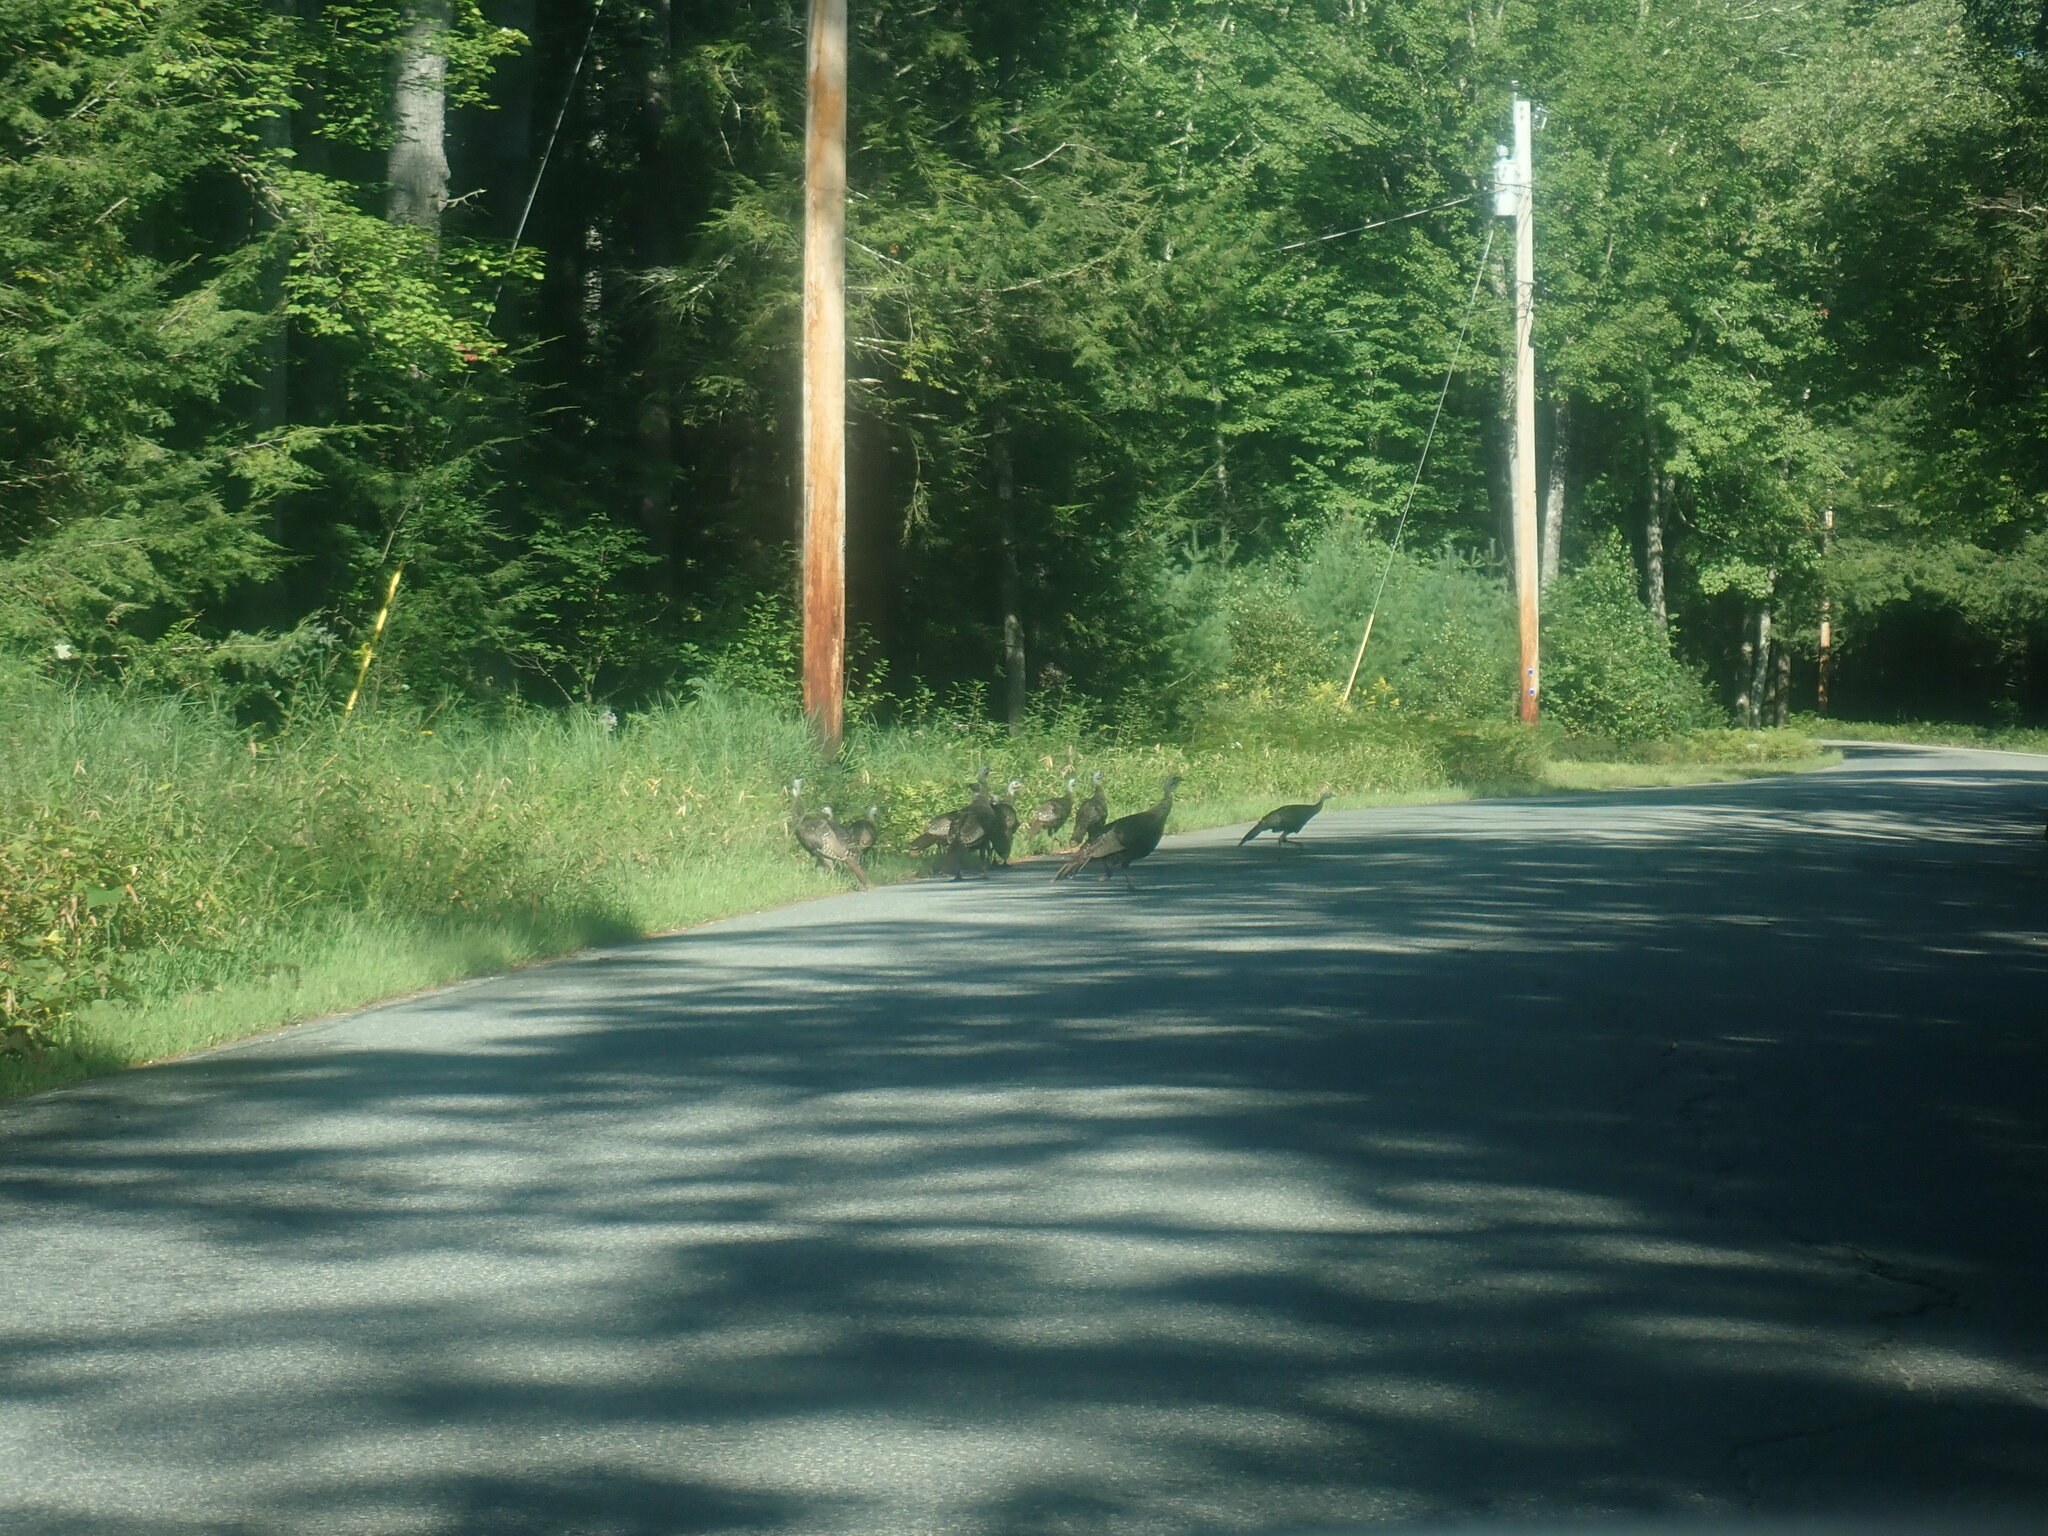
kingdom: Animalia
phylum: Chordata
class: Aves
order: Galliformes
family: Phasianidae
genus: Meleagris
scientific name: Meleagris gallopavo
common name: Wild turkey
